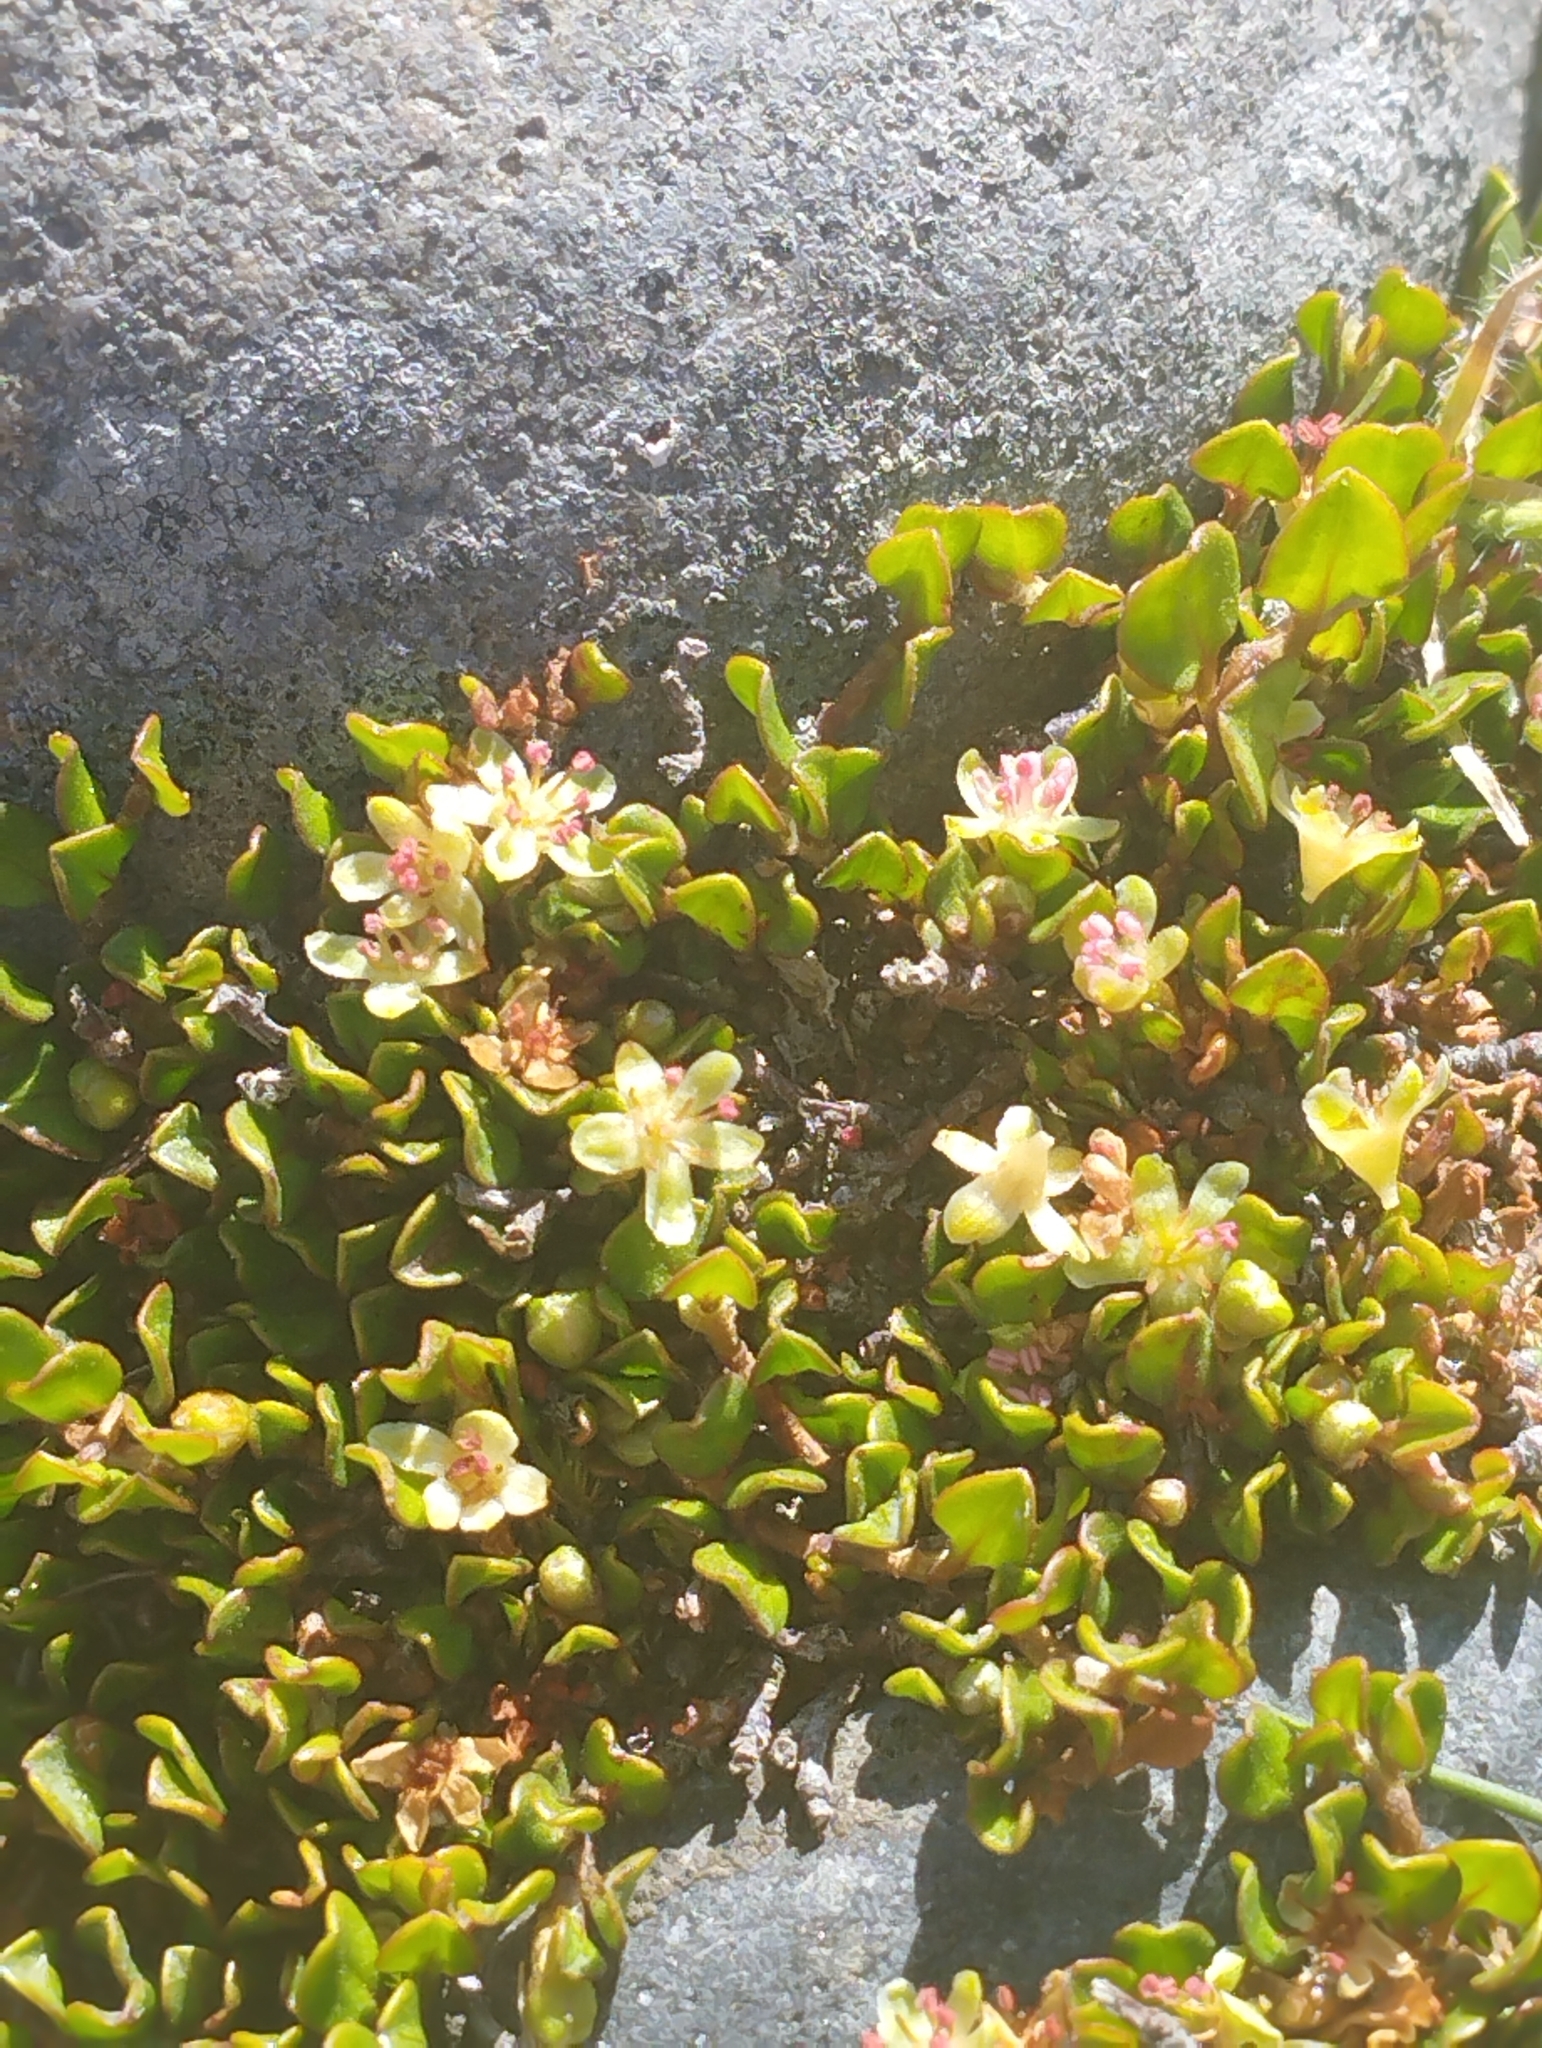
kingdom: Plantae
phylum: Tracheophyta
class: Magnoliopsida
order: Caryophyllales
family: Polygonaceae
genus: Muehlenbeckia
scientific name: Muehlenbeckia axillaris
